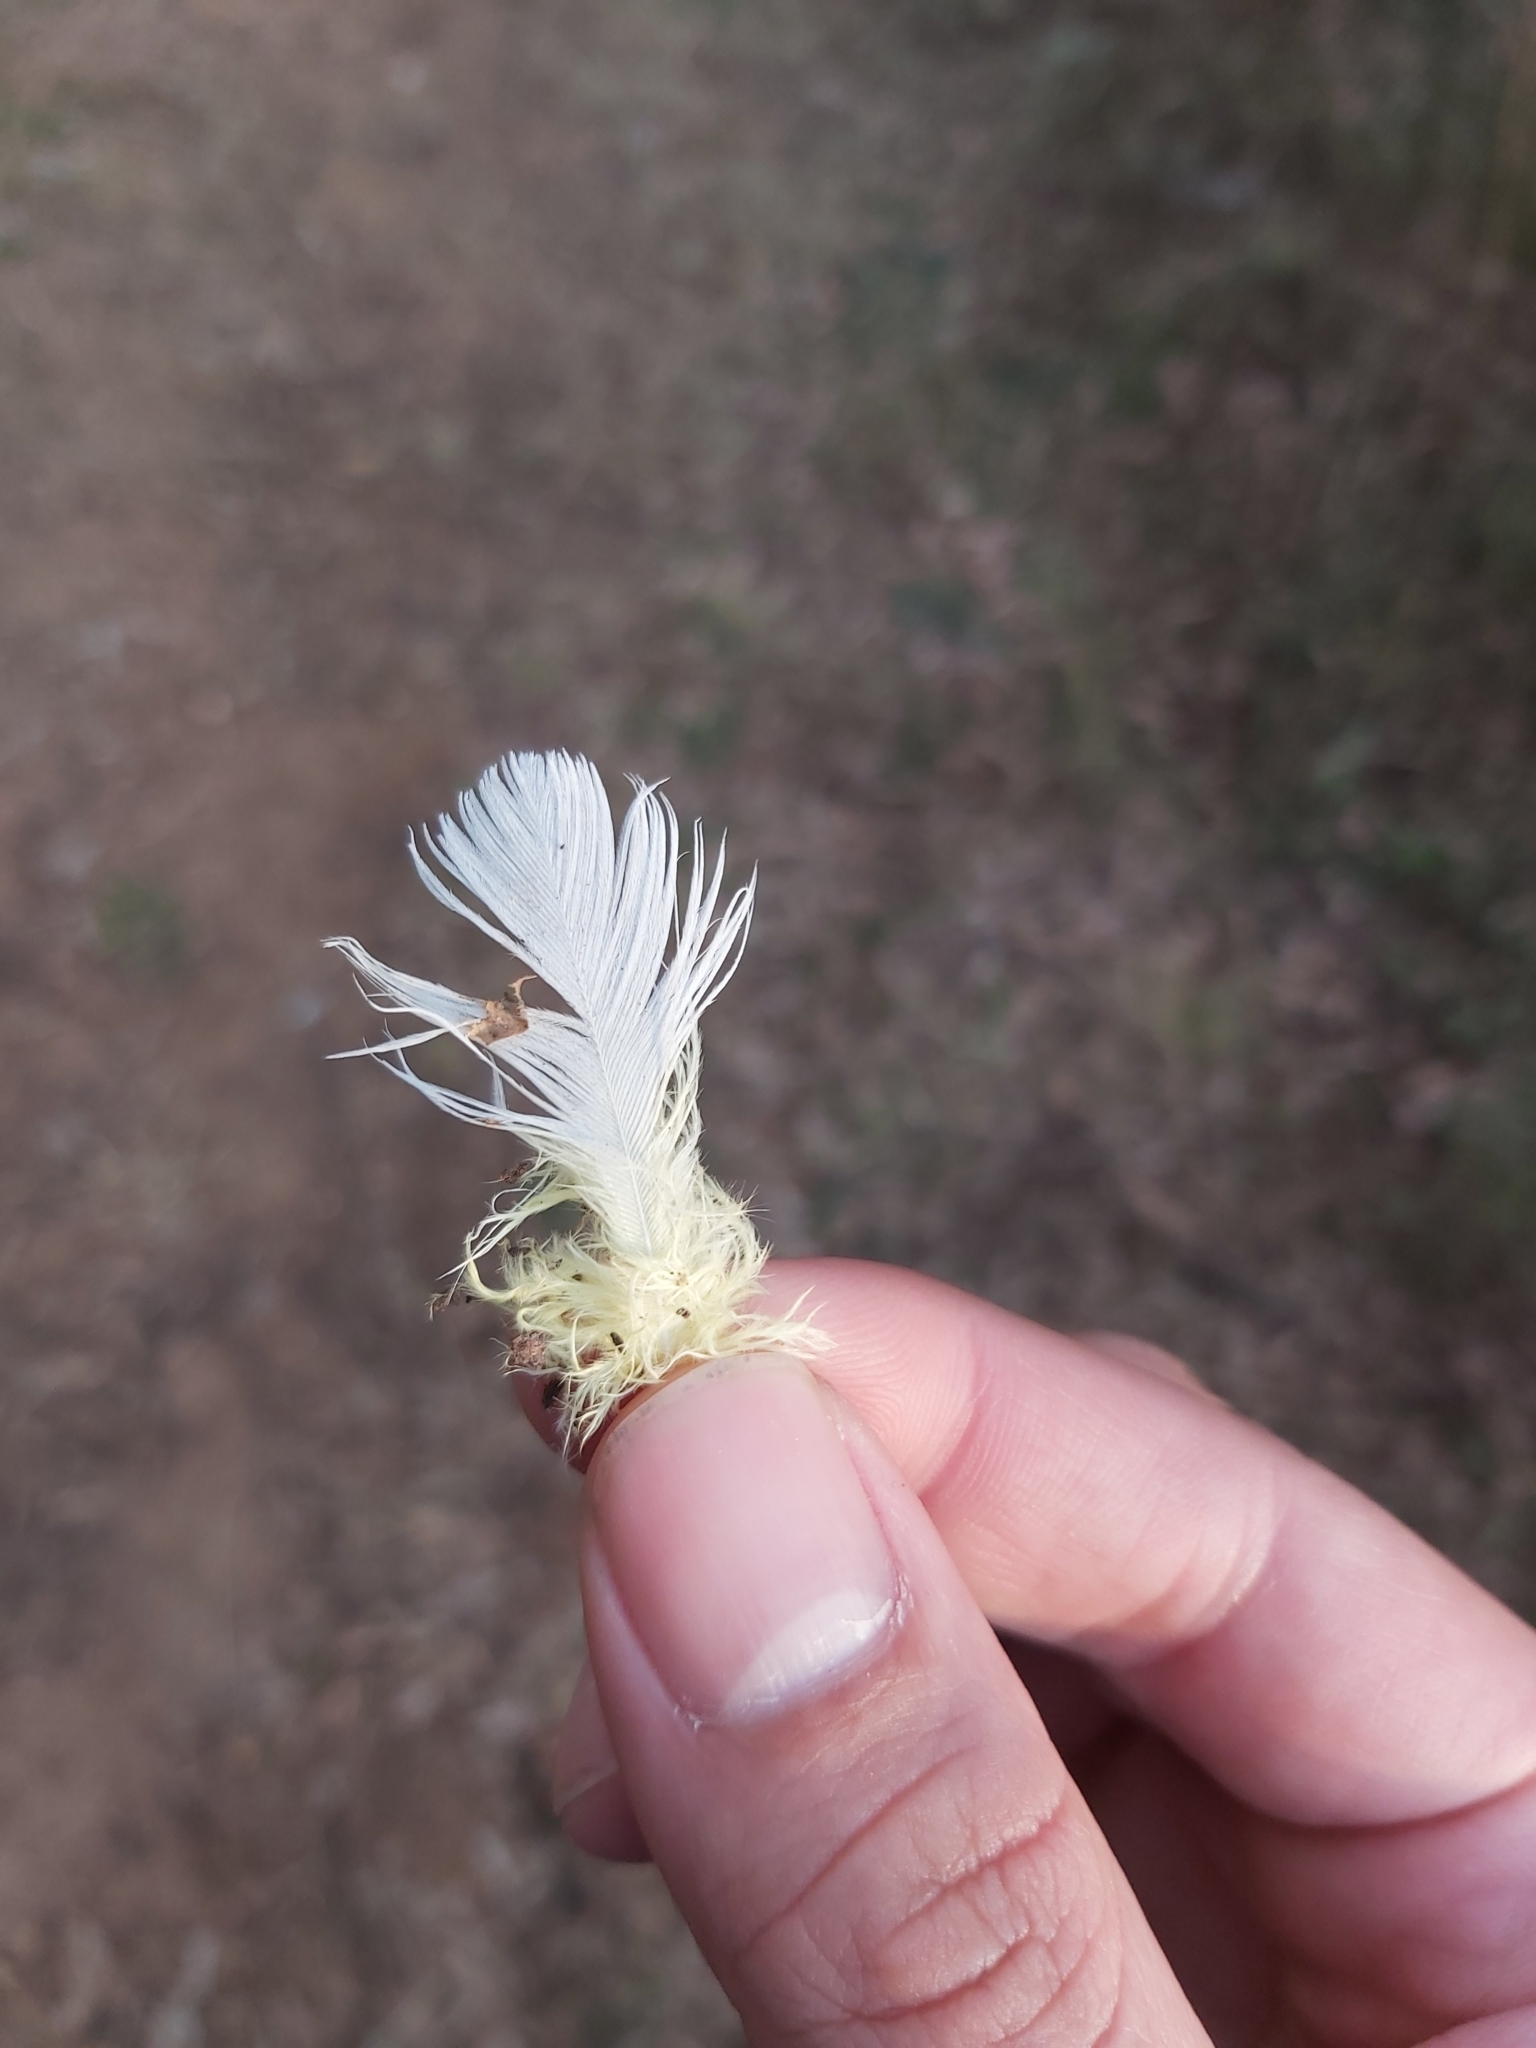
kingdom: Animalia
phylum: Chordata
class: Aves
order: Psittaciformes
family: Psittacidae
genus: Cacatua
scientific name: Cacatua galerita
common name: Sulphur-crested cockatoo
